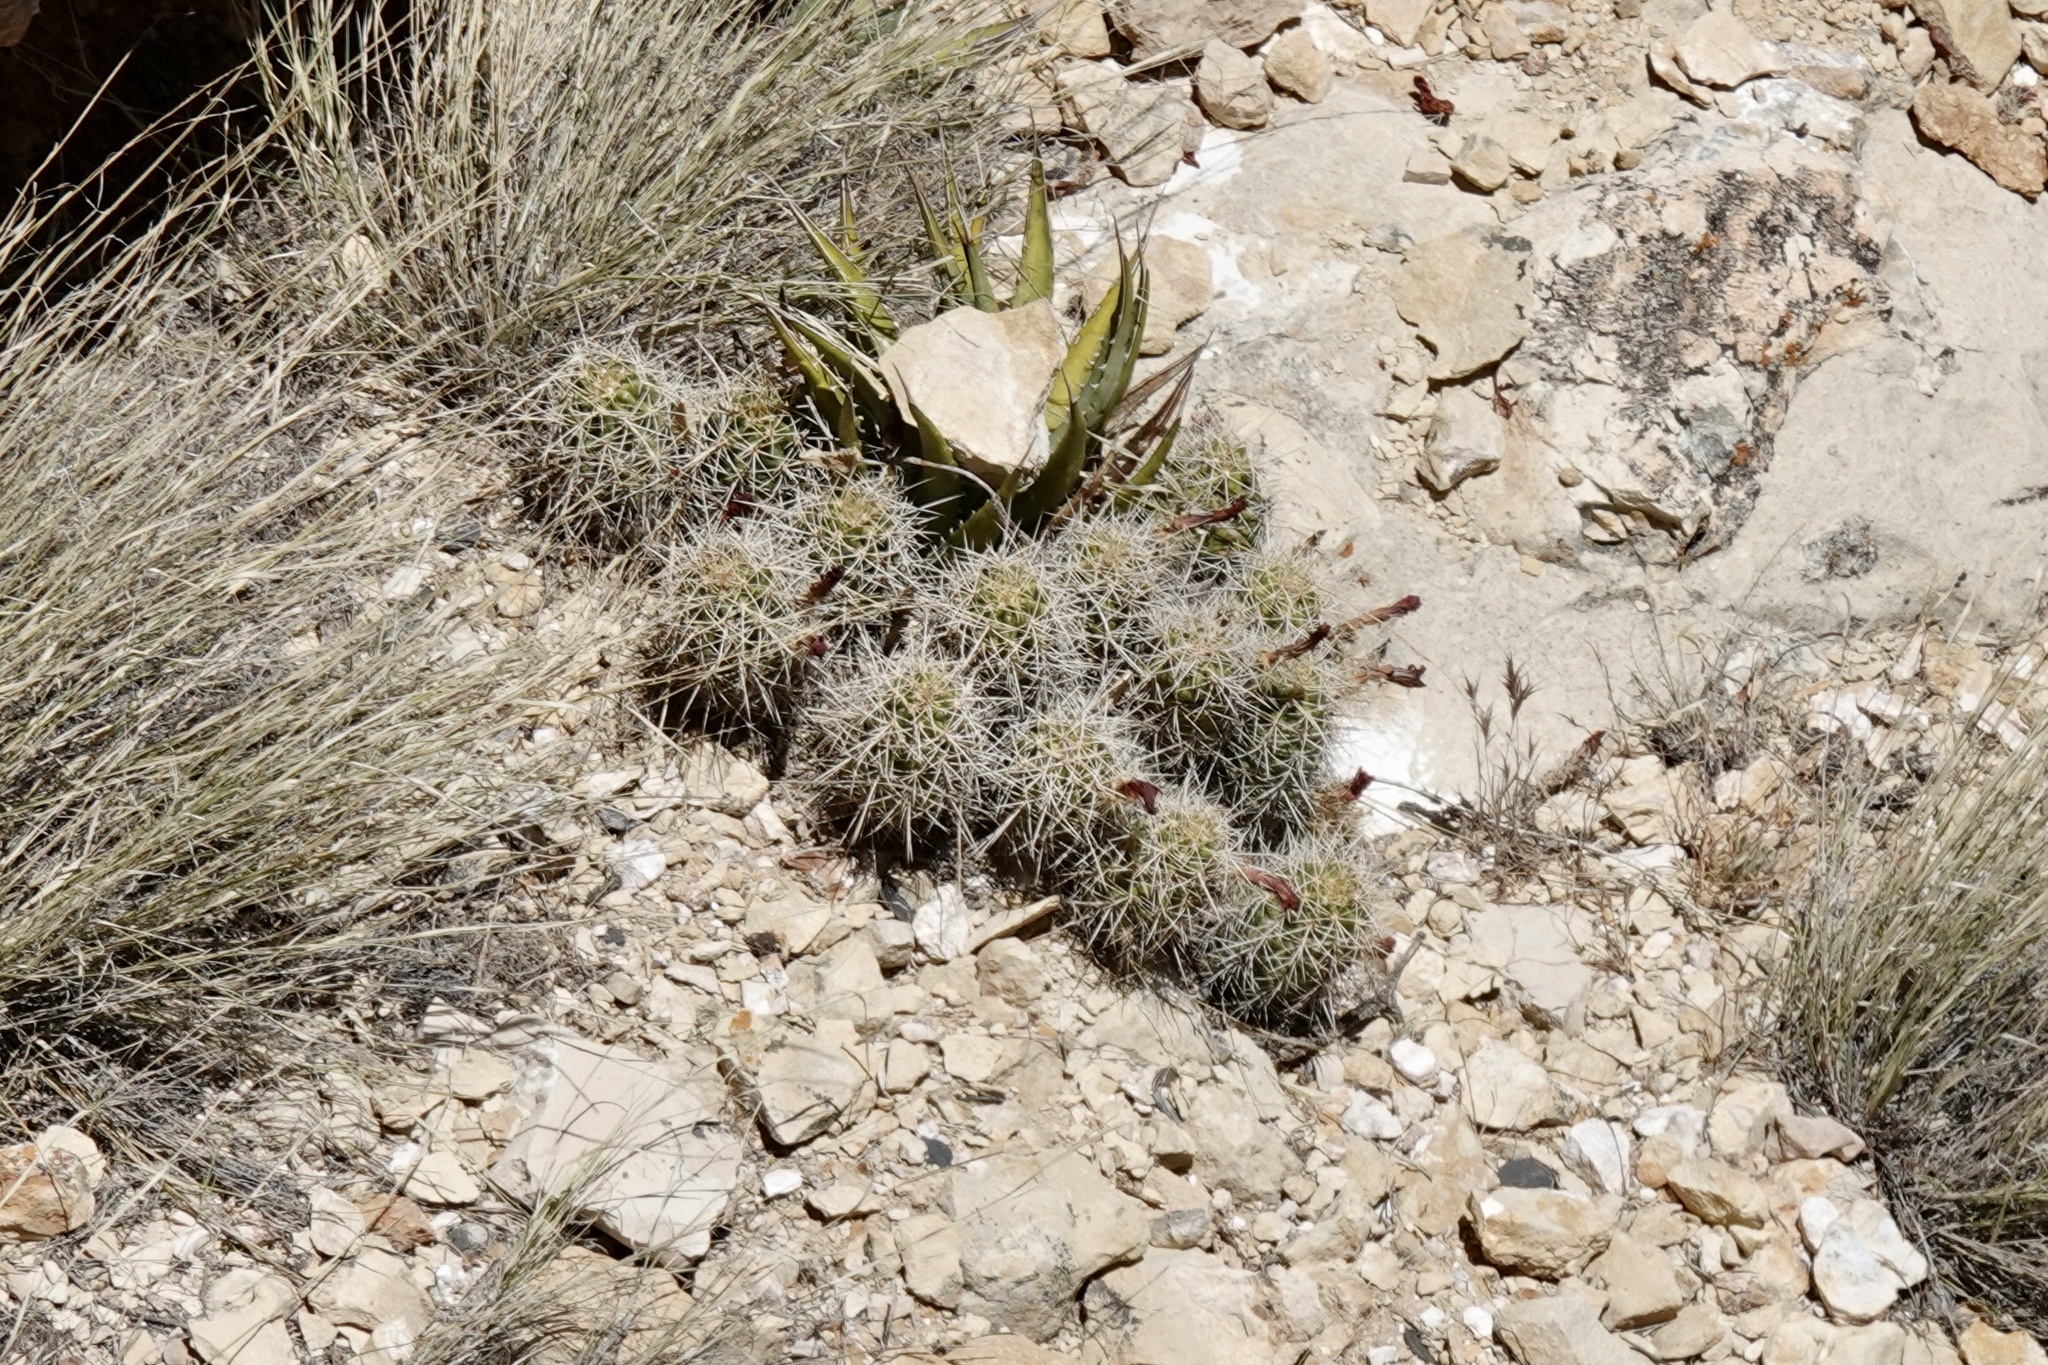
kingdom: Plantae
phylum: Tracheophyta
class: Magnoliopsida
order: Caryophyllales
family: Cactaceae
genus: Echinocereus
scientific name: Echinocereus triglochidiatus
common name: Claretcup hedgehog
